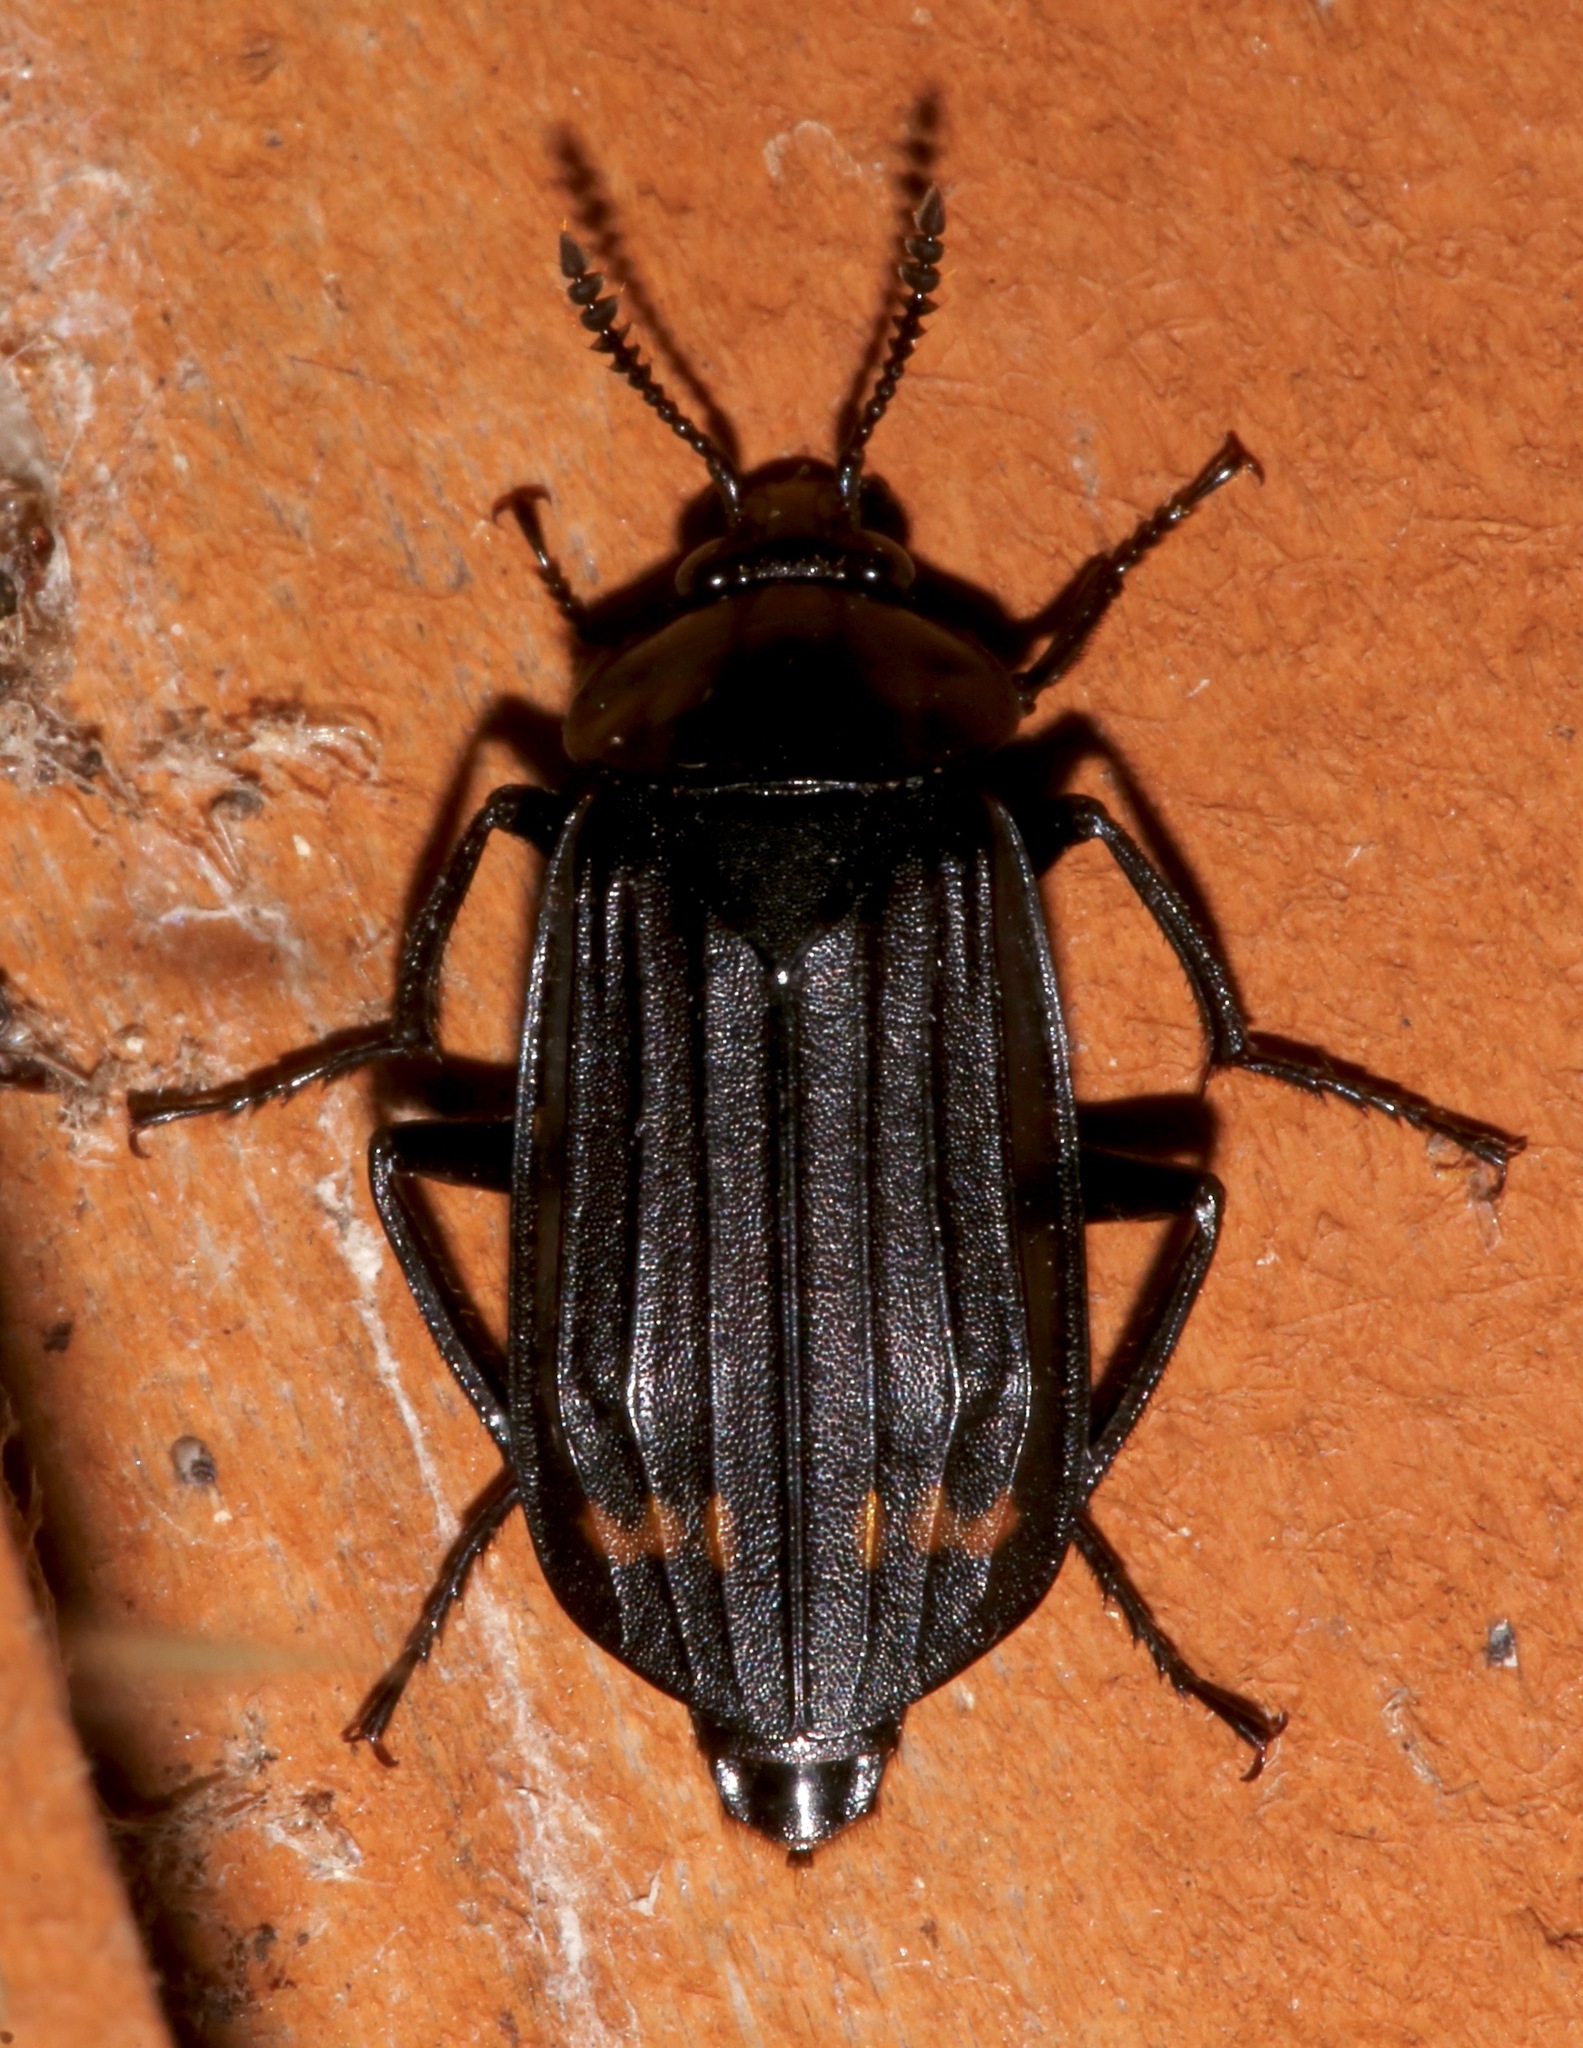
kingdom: Animalia
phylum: Arthropoda
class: Insecta
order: Coleoptera
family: Staphylinidae
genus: Necrodes
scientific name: Necrodes surinamensis
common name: Red-lined carrion beetle
